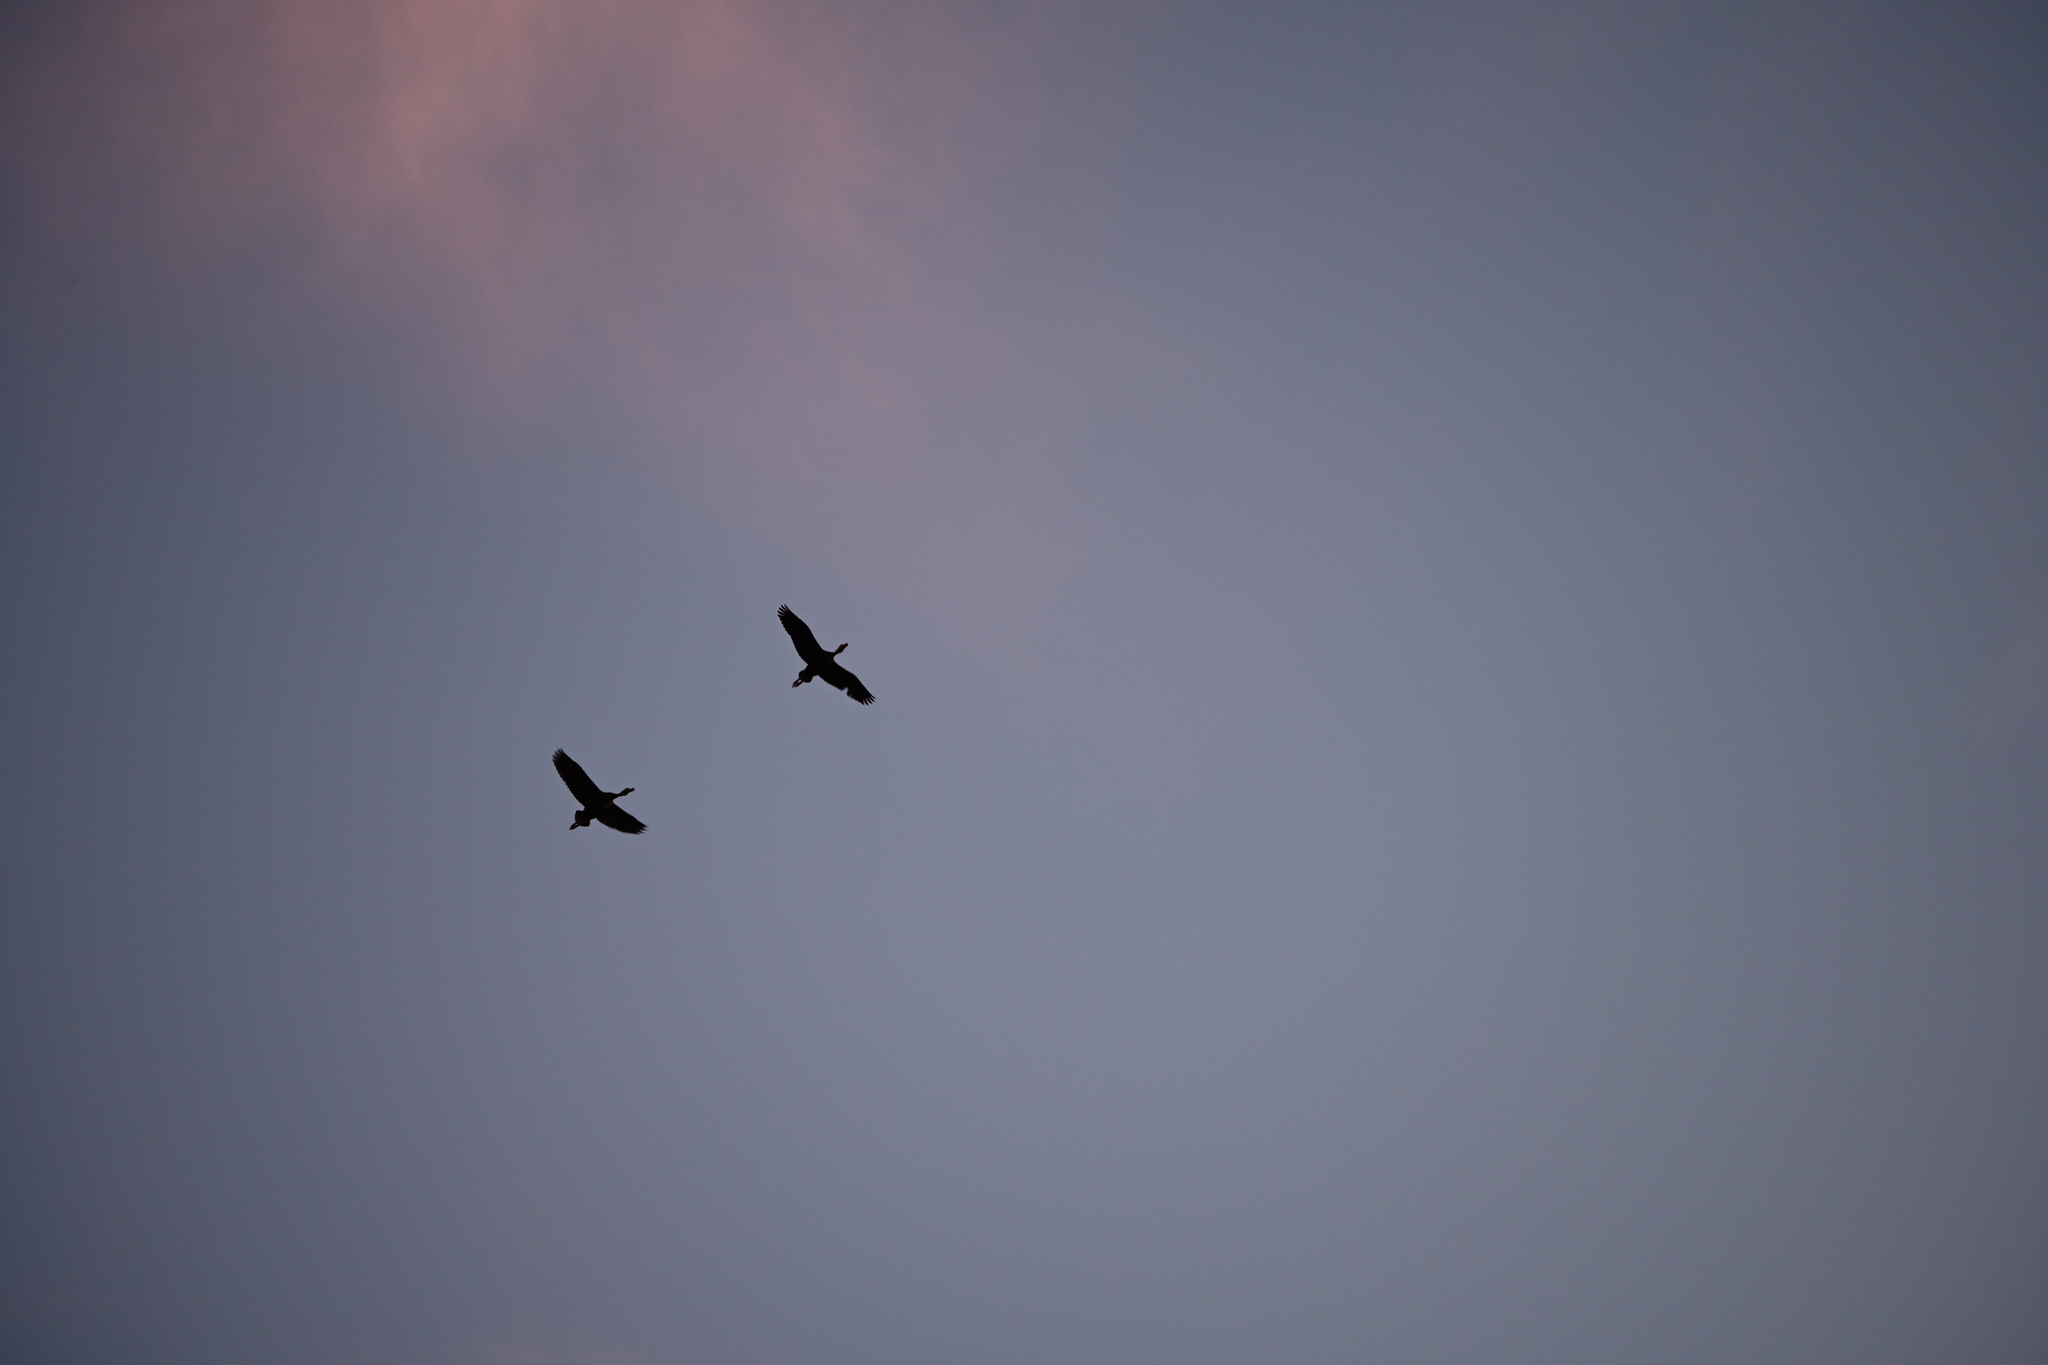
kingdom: Animalia
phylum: Chordata
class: Aves
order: Anseriformes
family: Anatidae
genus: Dendrocygna
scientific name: Dendrocygna autumnalis
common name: Black-bellied whistling duck
